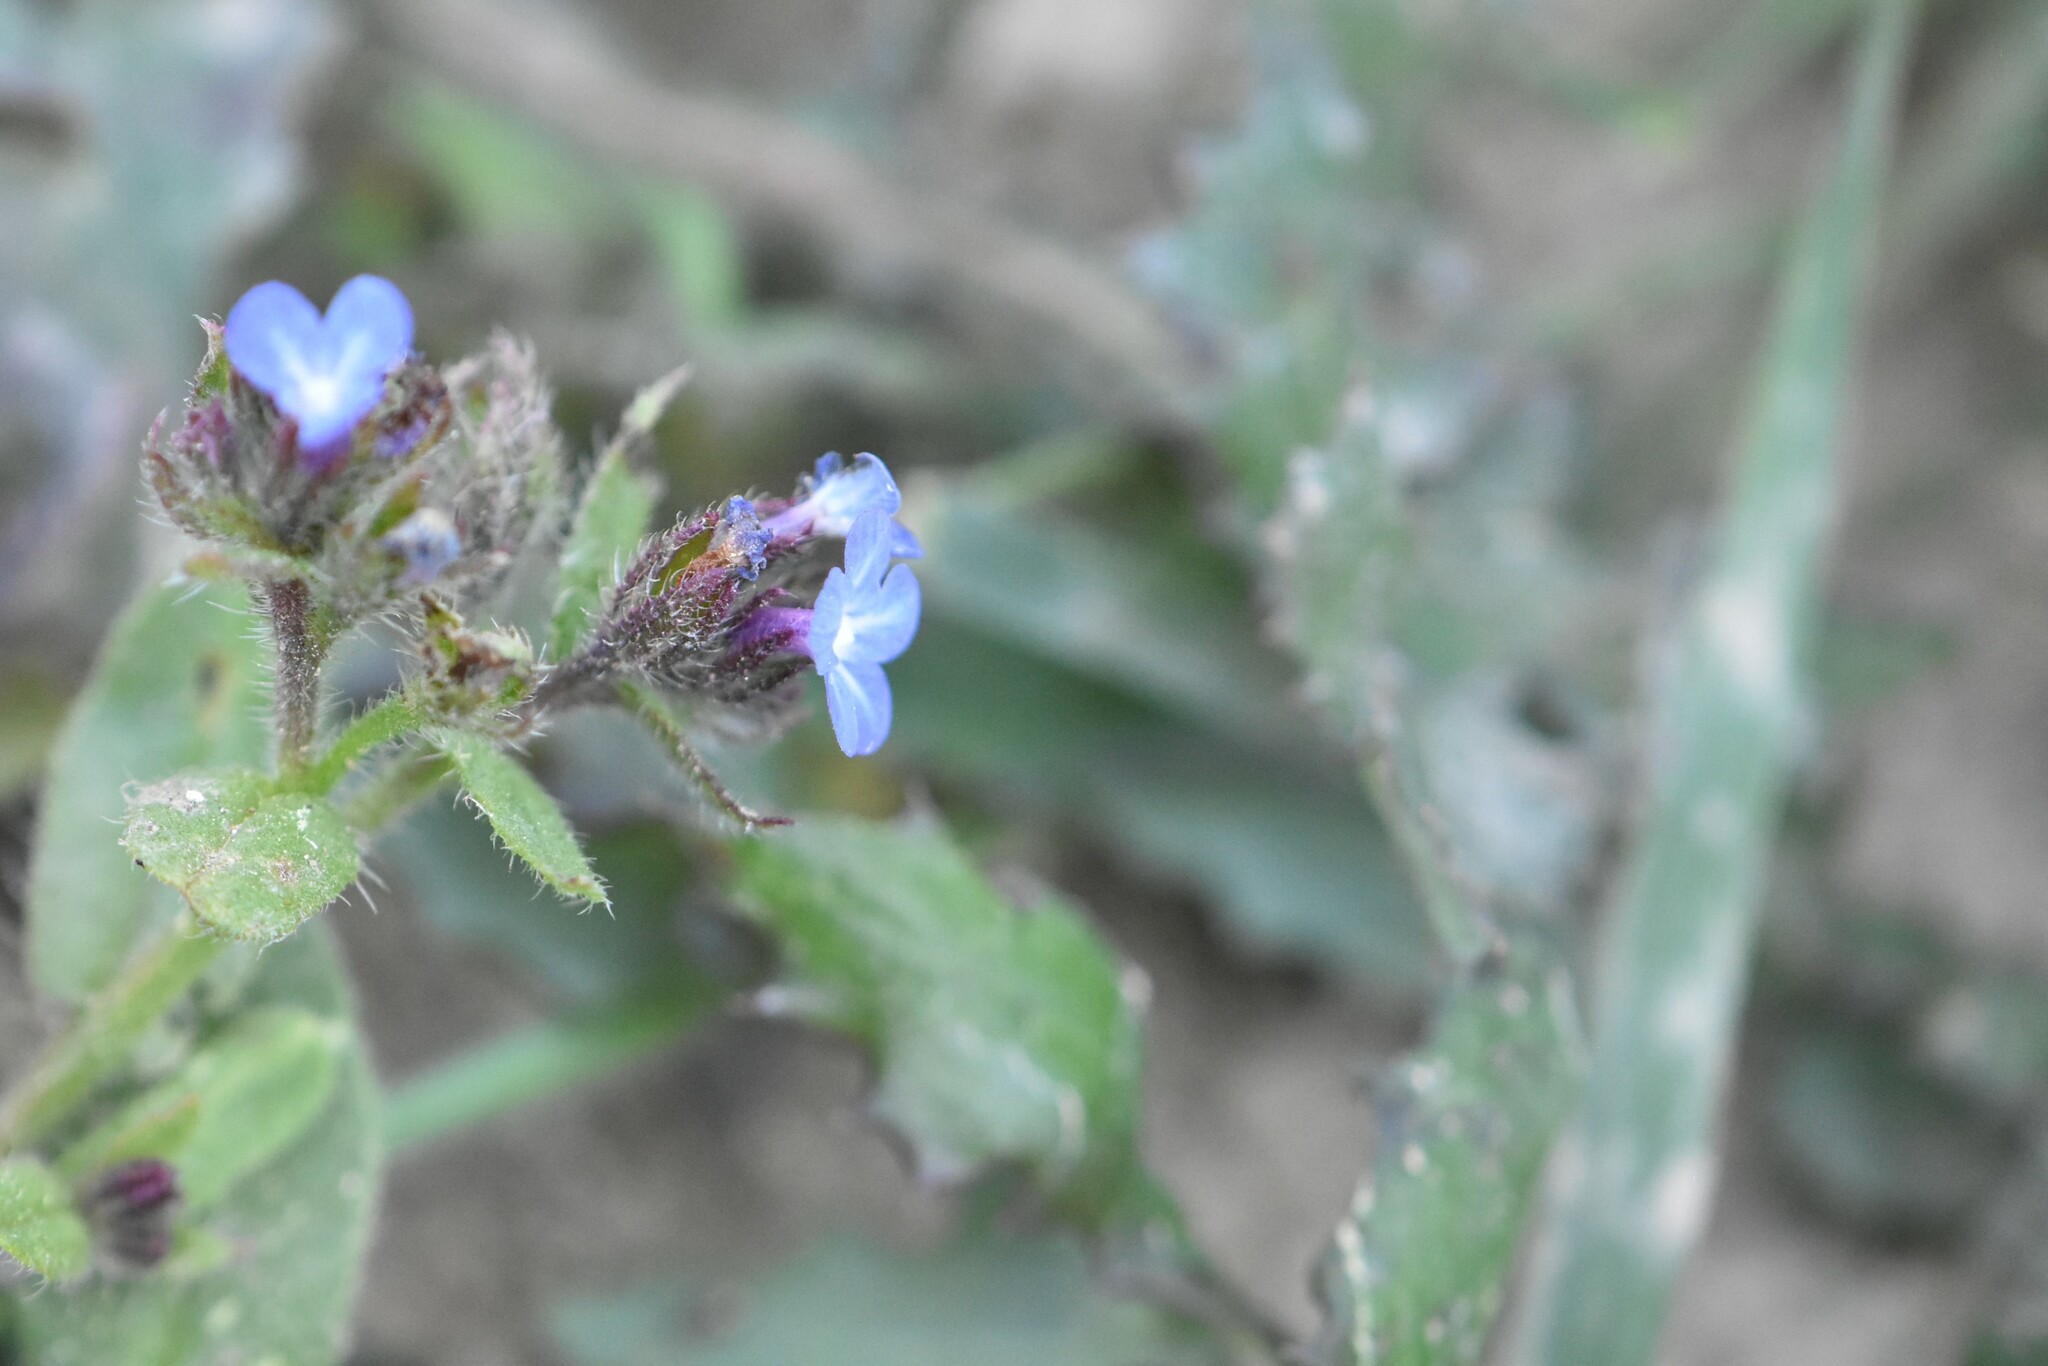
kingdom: Plantae
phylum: Tracheophyta
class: Magnoliopsida
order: Boraginales
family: Boraginaceae
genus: Lycopsis
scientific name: Lycopsis arvensis
